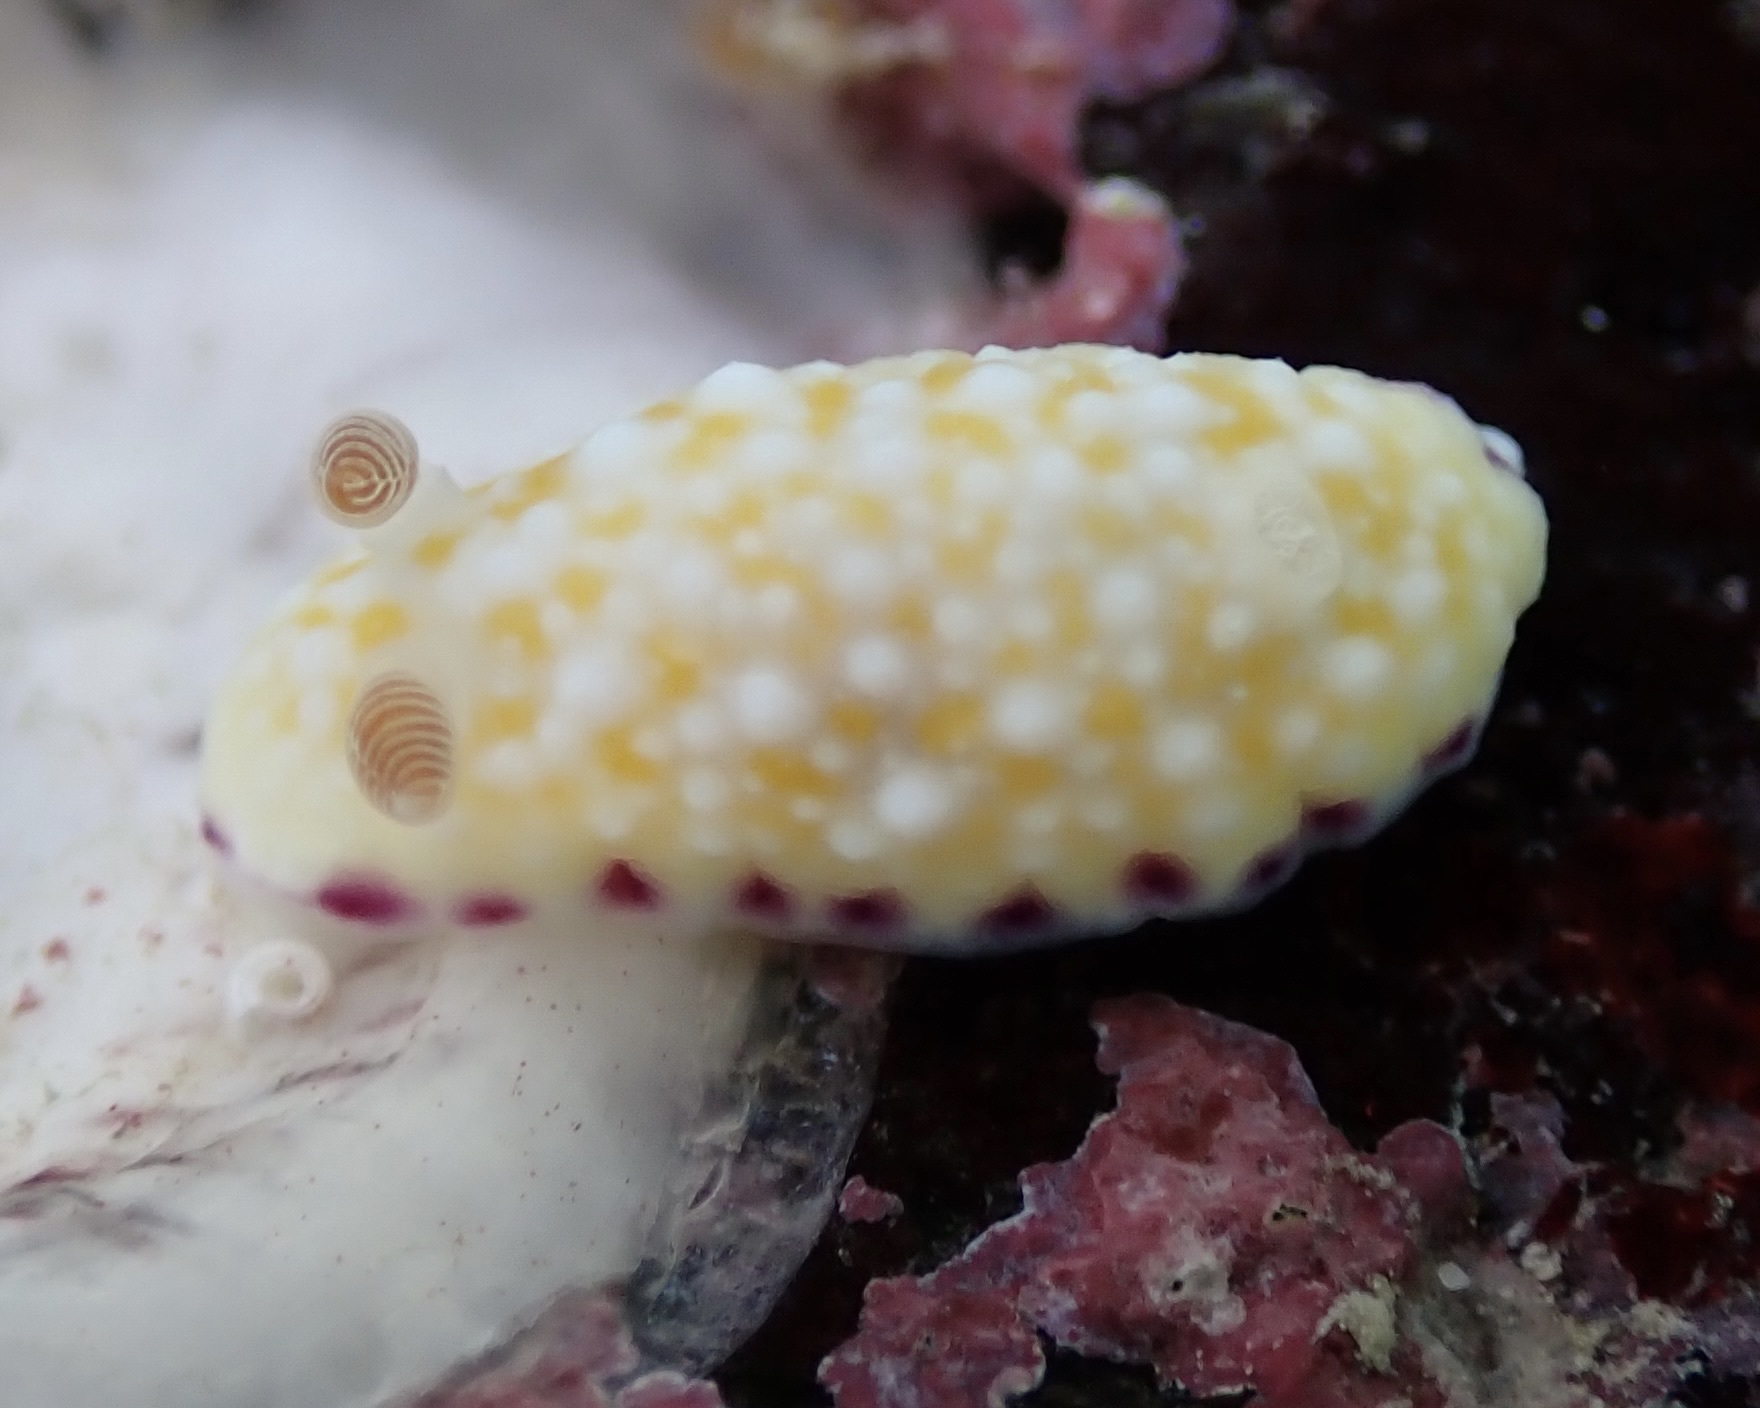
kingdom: Animalia
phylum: Mollusca
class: Gastropoda
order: Nudibranchia
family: Chromodorididae
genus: Goniobranchus
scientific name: Goniobranchus albopustulosus
